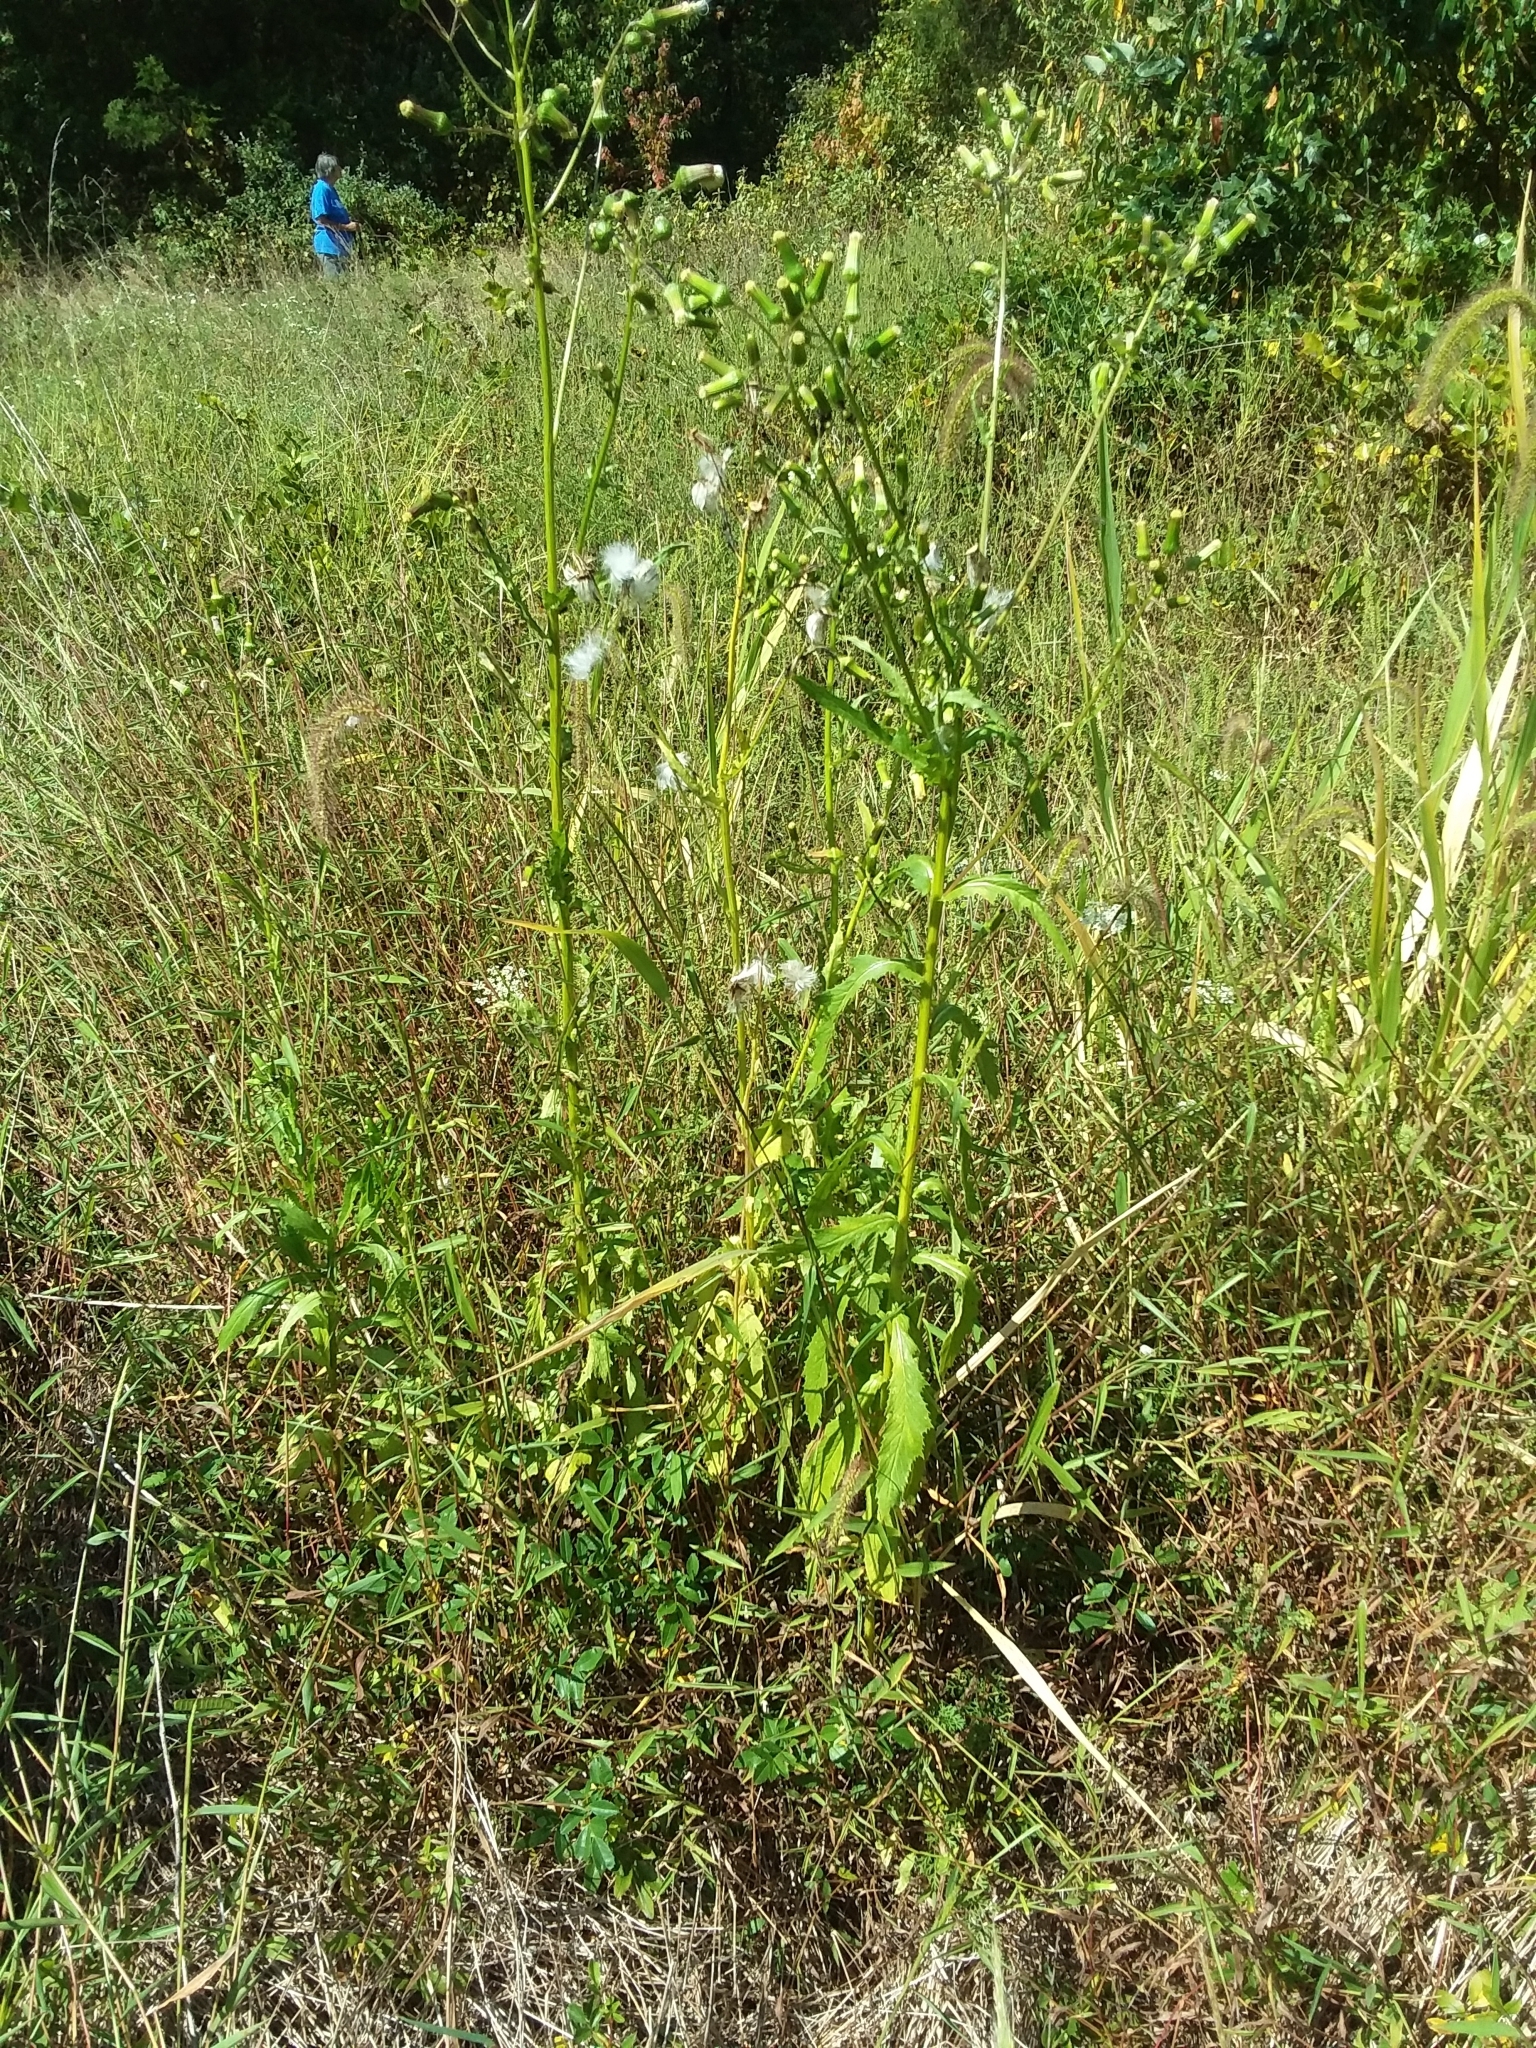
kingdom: Plantae
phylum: Tracheophyta
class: Magnoliopsida
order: Asterales
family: Asteraceae
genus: Erechtites
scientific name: Erechtites hieraciifolius
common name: American burnweed
